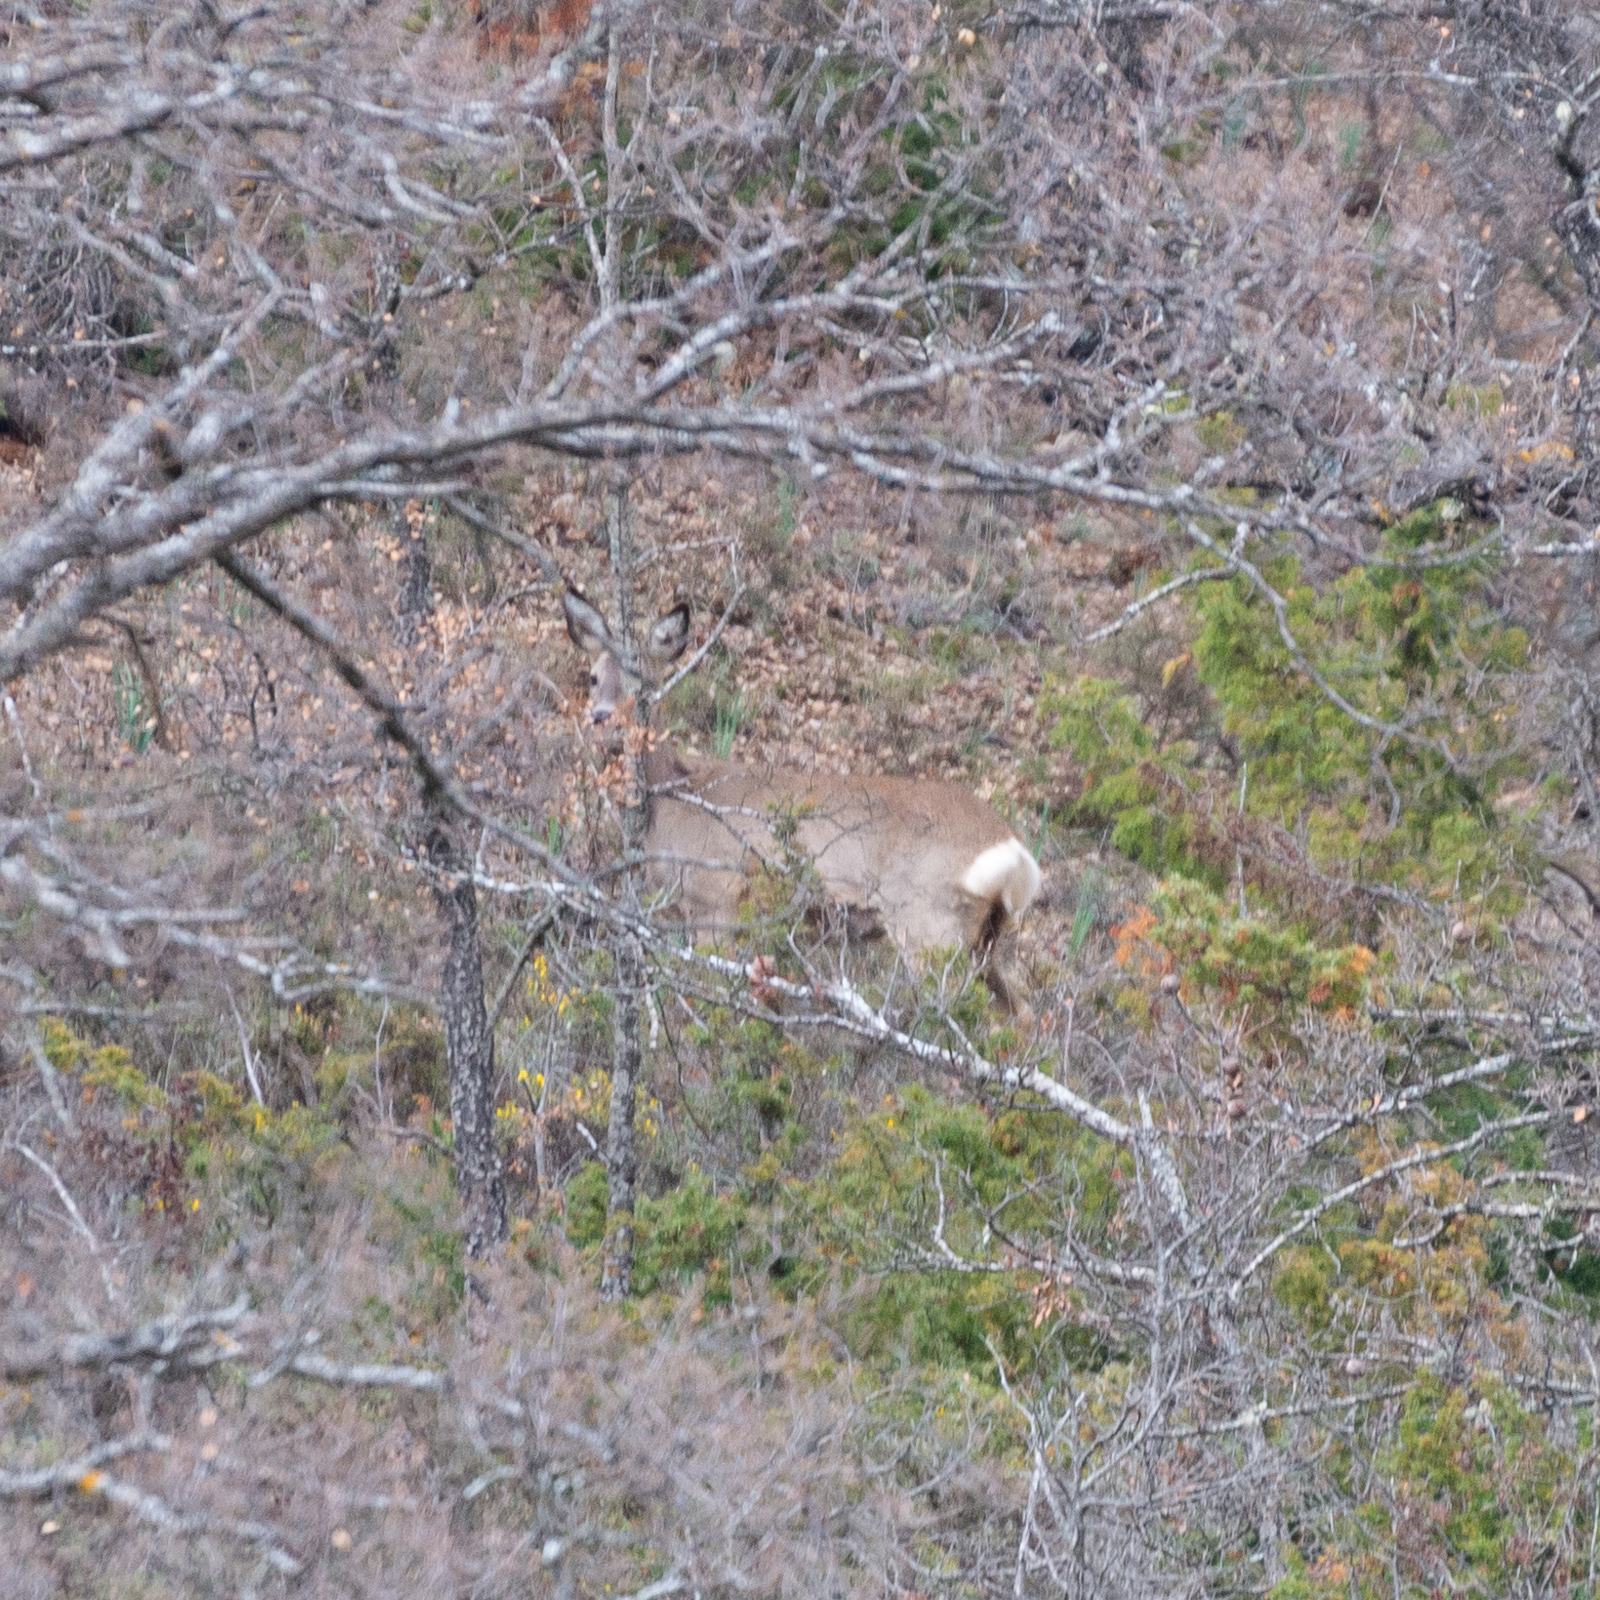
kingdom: Animalia
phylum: Chordata
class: Mammalia
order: Artiodactyla
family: Cervidae
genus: Capreolus
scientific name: Capreolus capreolus
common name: Western roe deer
